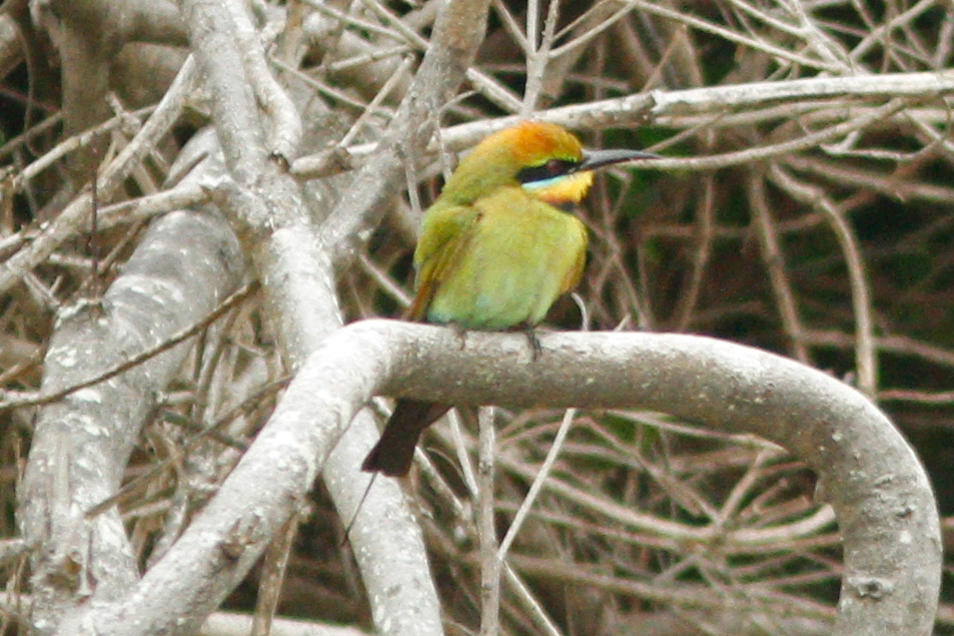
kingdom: Animalia
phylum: Chordata
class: Aves
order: Coraciiformes
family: Meropidae
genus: Merops
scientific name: Merops ornatus
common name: Rainbow bee-eater
